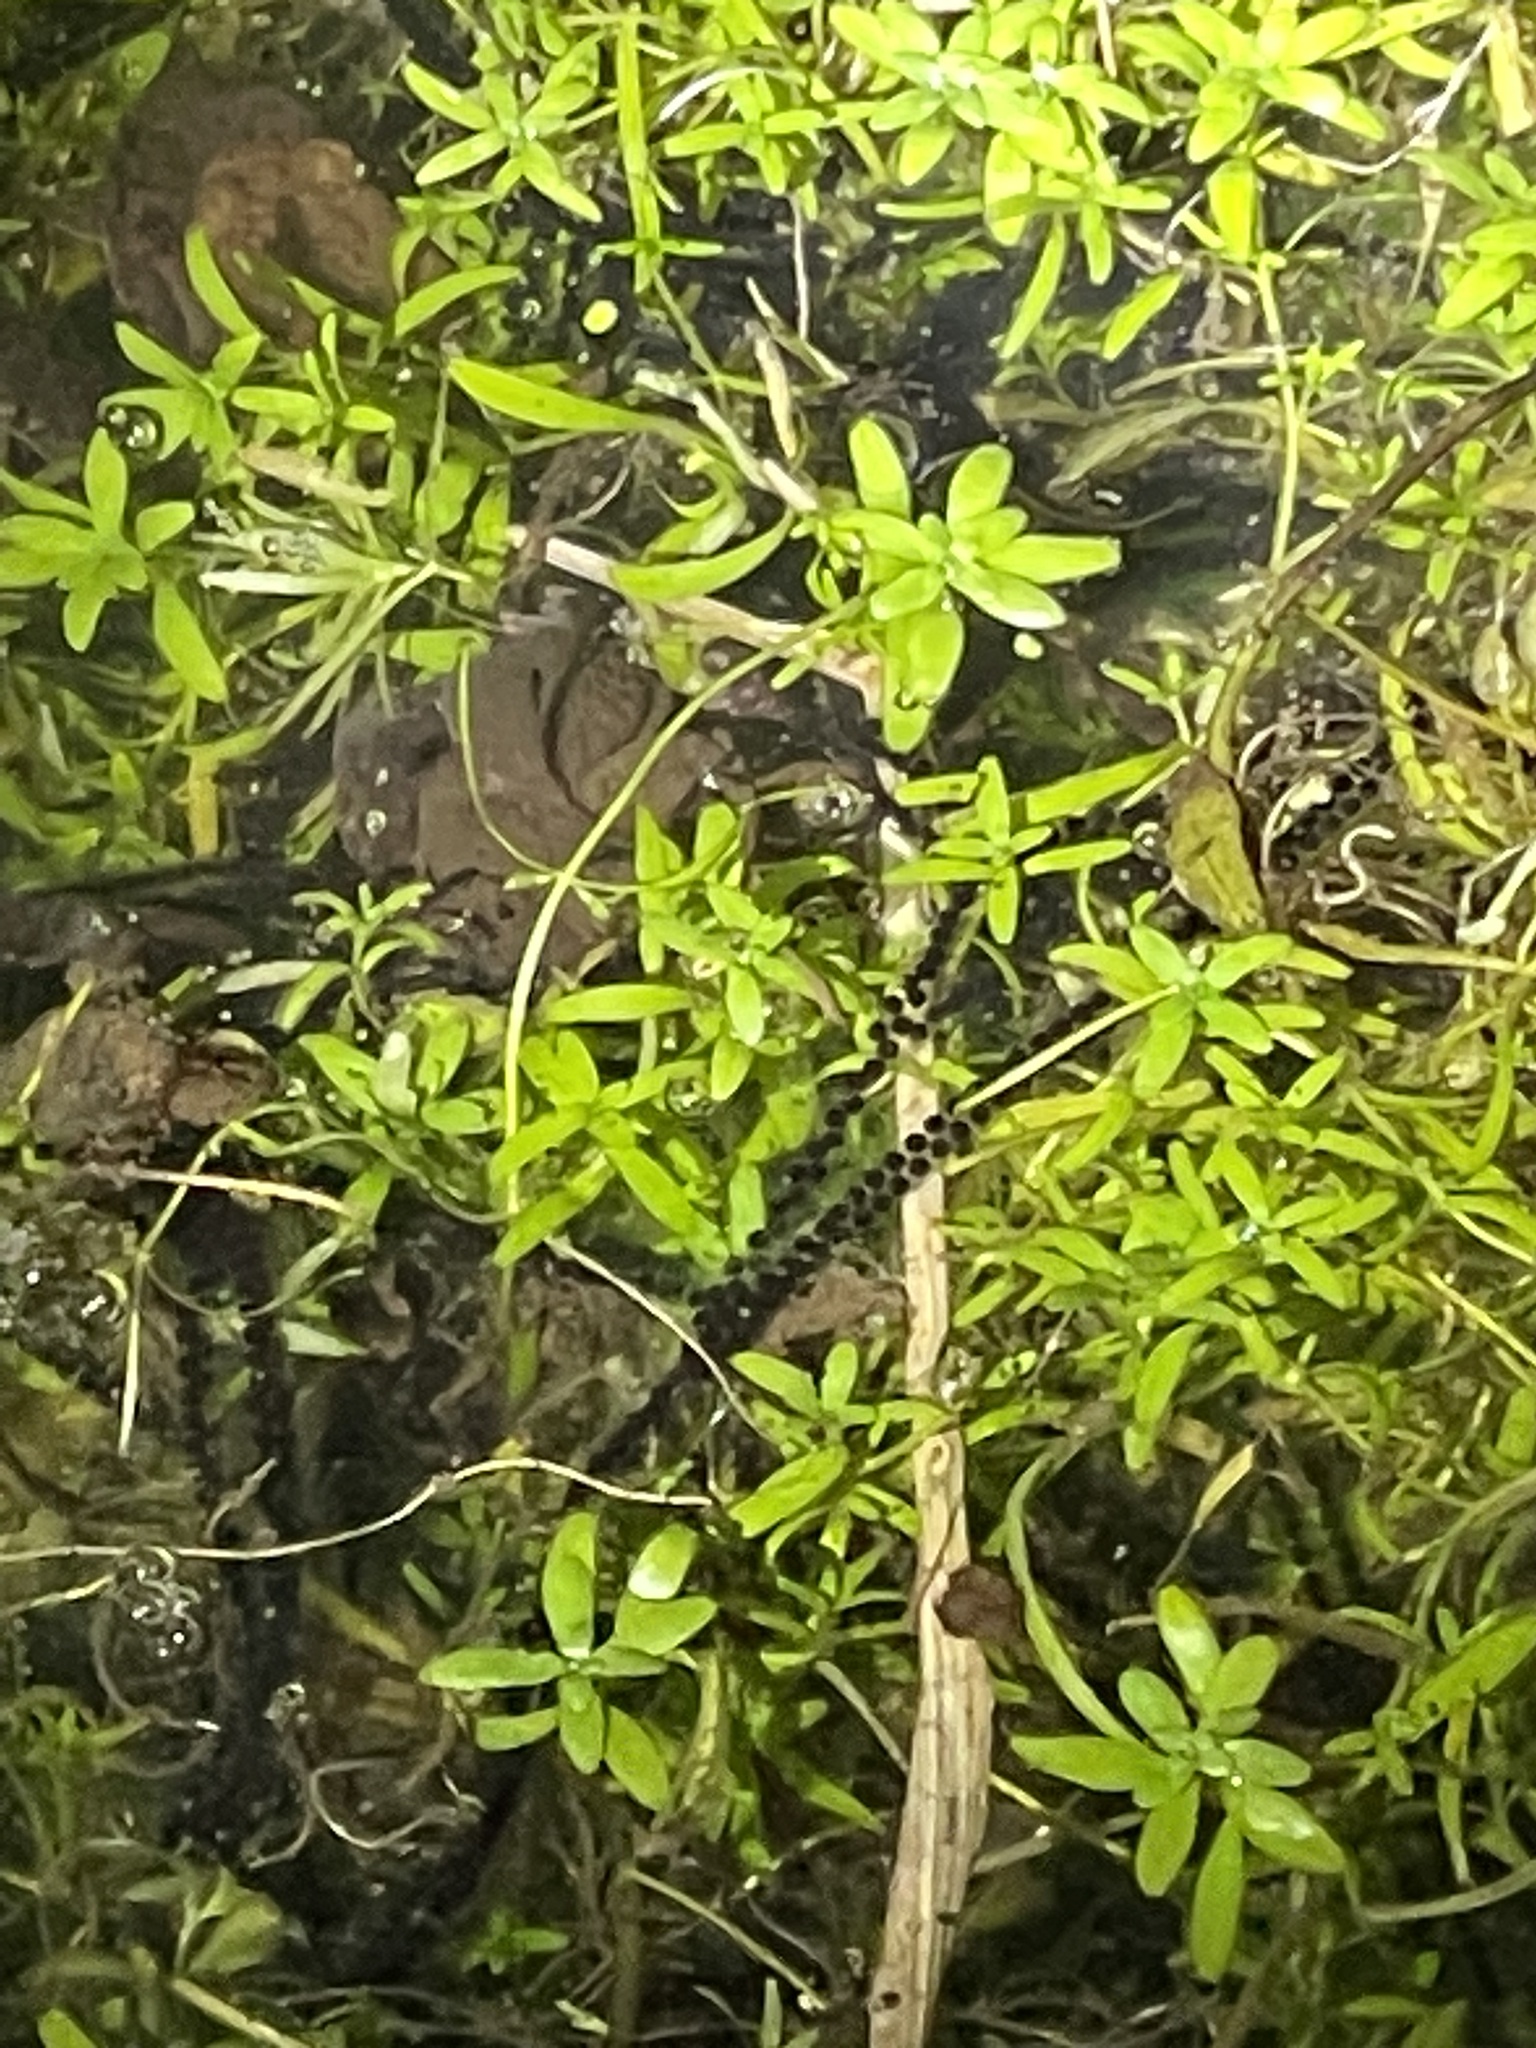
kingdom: Animalia
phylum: Chordata
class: Amphibia
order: Anura
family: Bufonidae
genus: Bufo
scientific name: Bufo bufo
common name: Common toad
